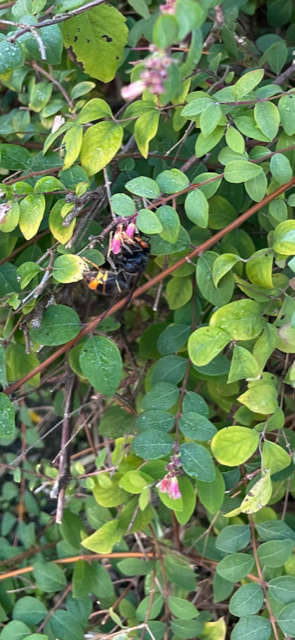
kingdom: Animalia
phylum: Arthropoda
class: Insecta
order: Hymenoptera
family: Vespidae
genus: Vespa
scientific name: Vespa velutina
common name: Asian hornet
